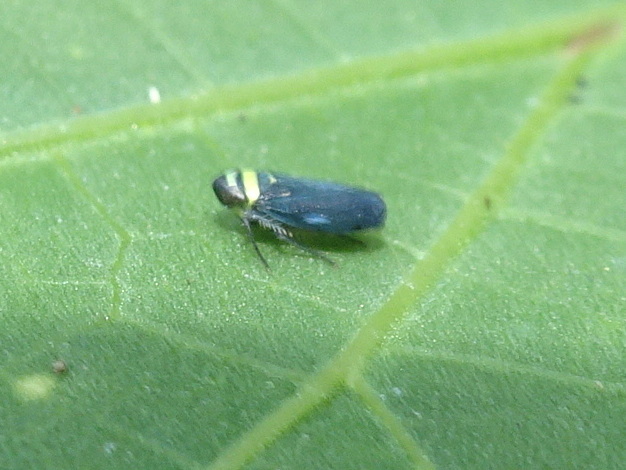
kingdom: Animalia
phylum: Arthropoda
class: Insecta
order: Hemiptera
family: Cicadellidae
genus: Stirellus
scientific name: Stirellus bicolor
